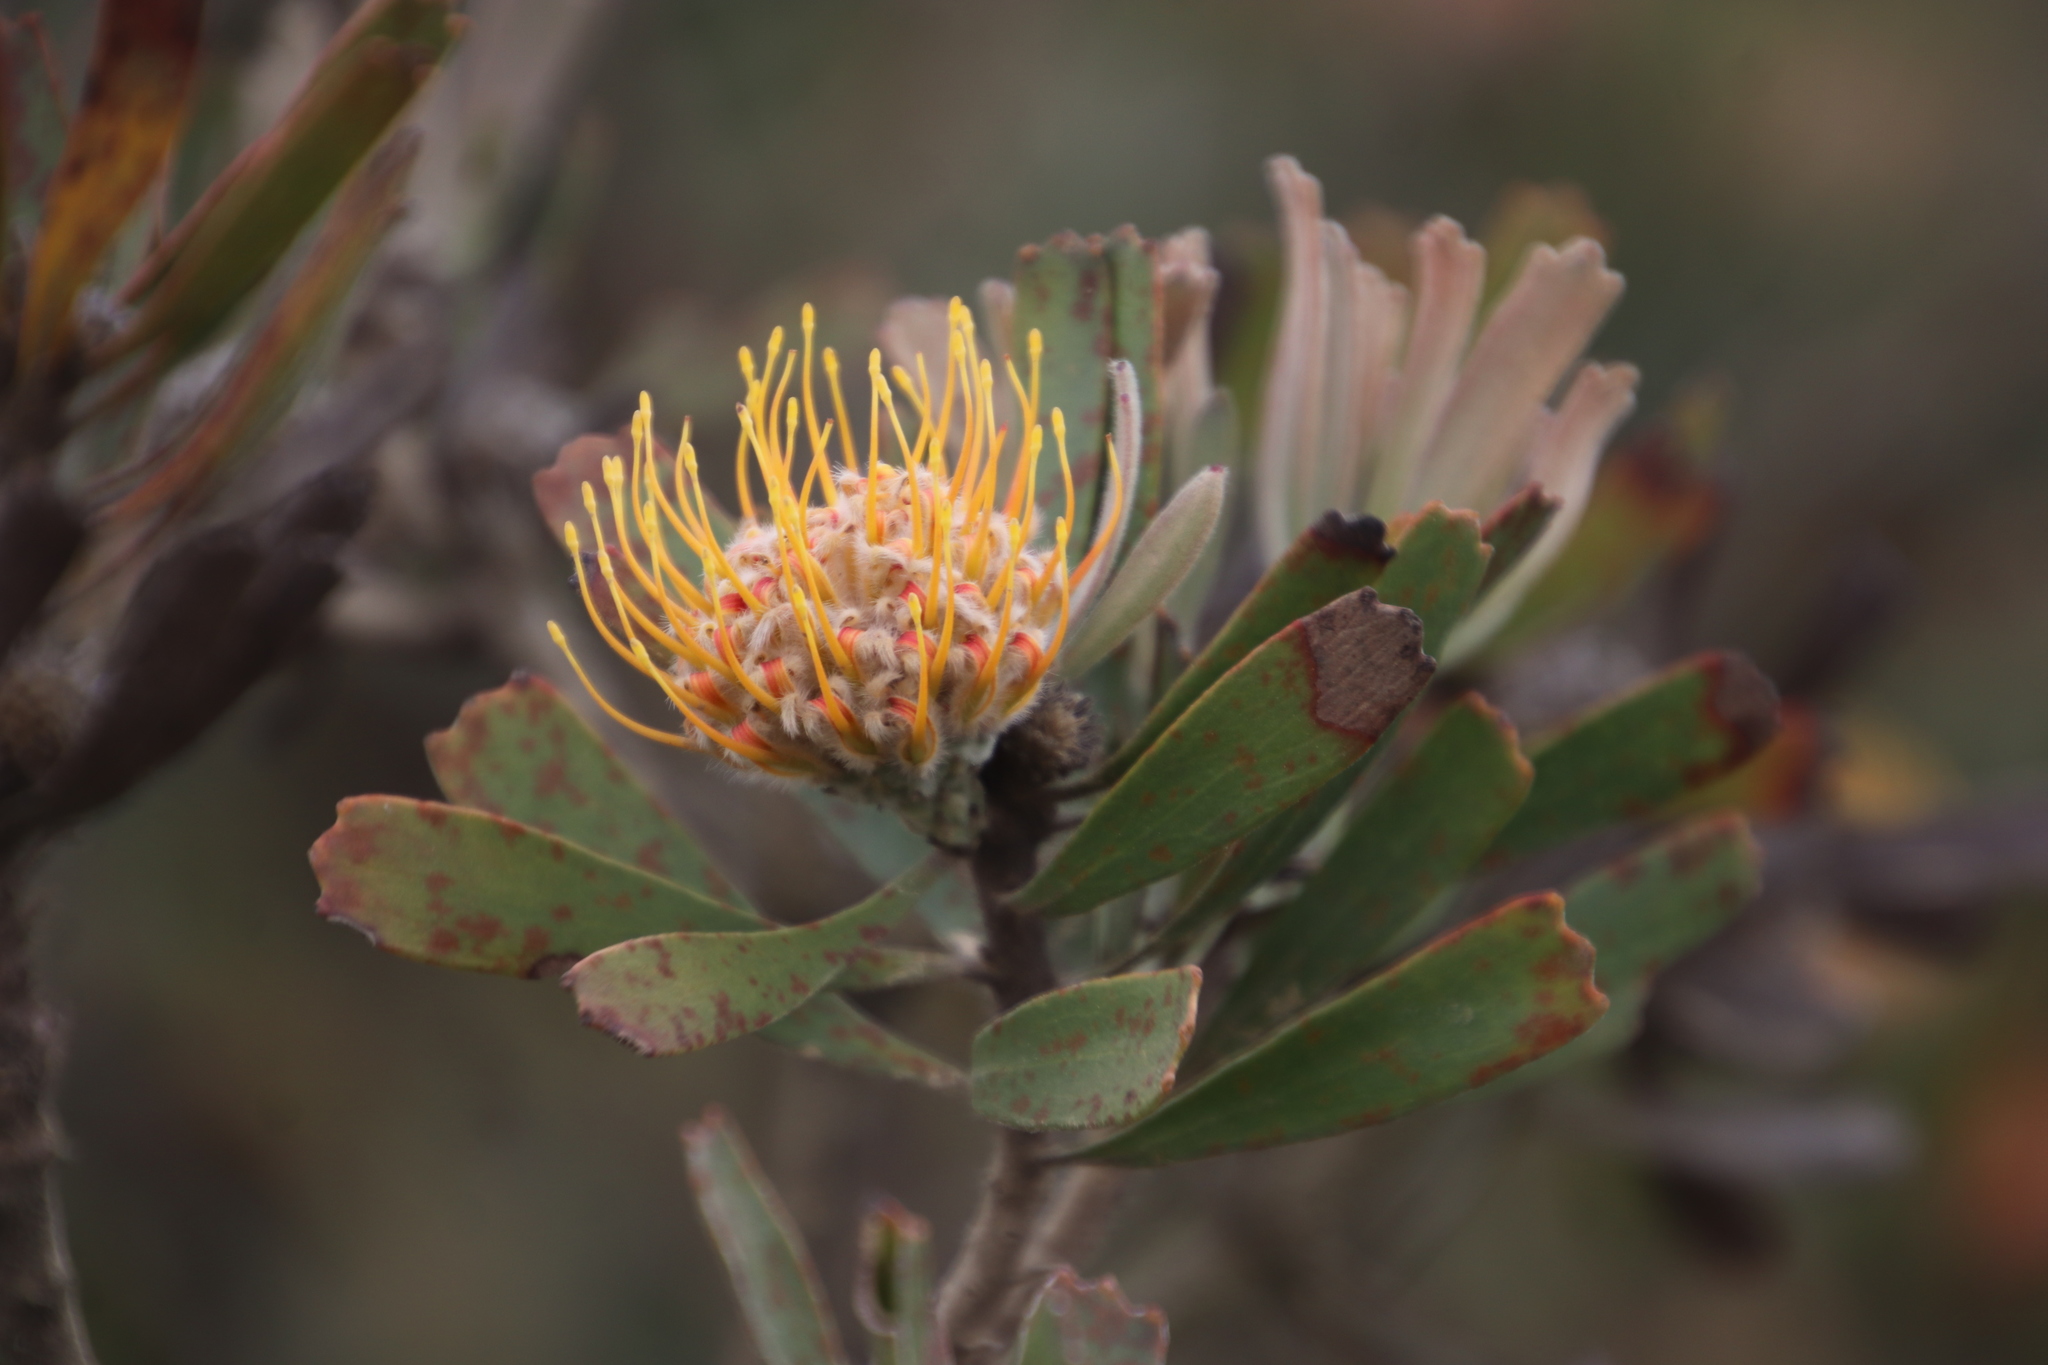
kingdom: Plantae
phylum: Tracheophyta
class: Magnoliopsida
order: Proteales
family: Proteaceae
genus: Leucospermum
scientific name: Leucospermum truncatum
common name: Limestone pincushion
